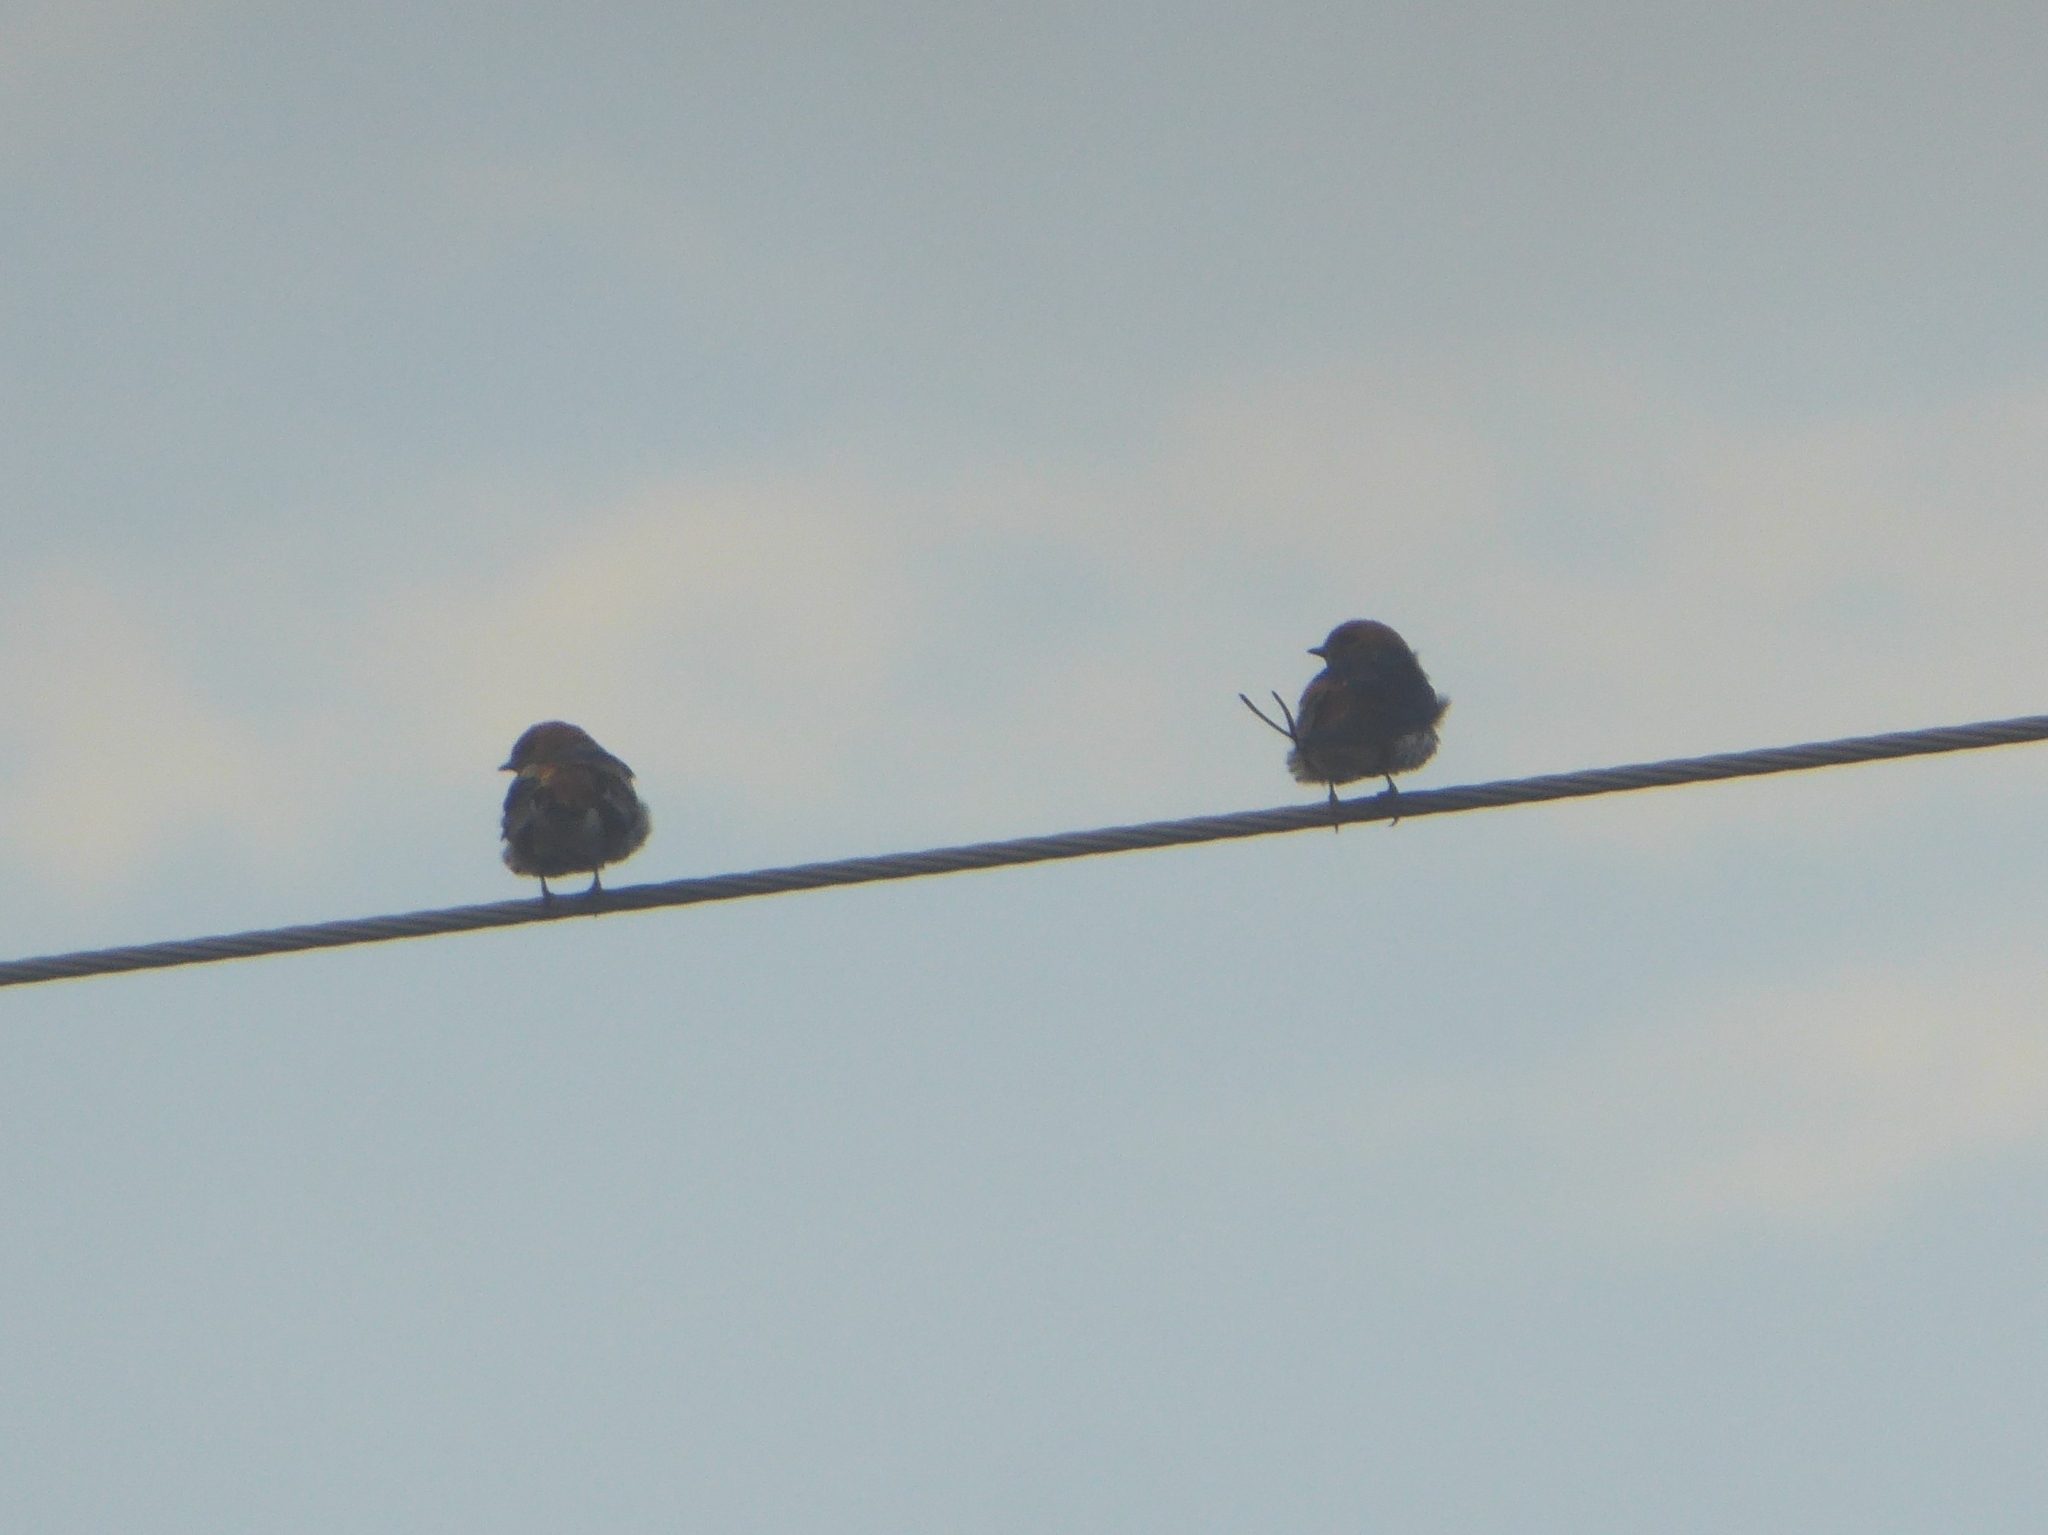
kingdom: Animalia
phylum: Chordata
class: Aves
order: Passeriformes
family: Hirundinidae
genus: Hirundo
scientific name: Hirundo rustica
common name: Barn swallow
